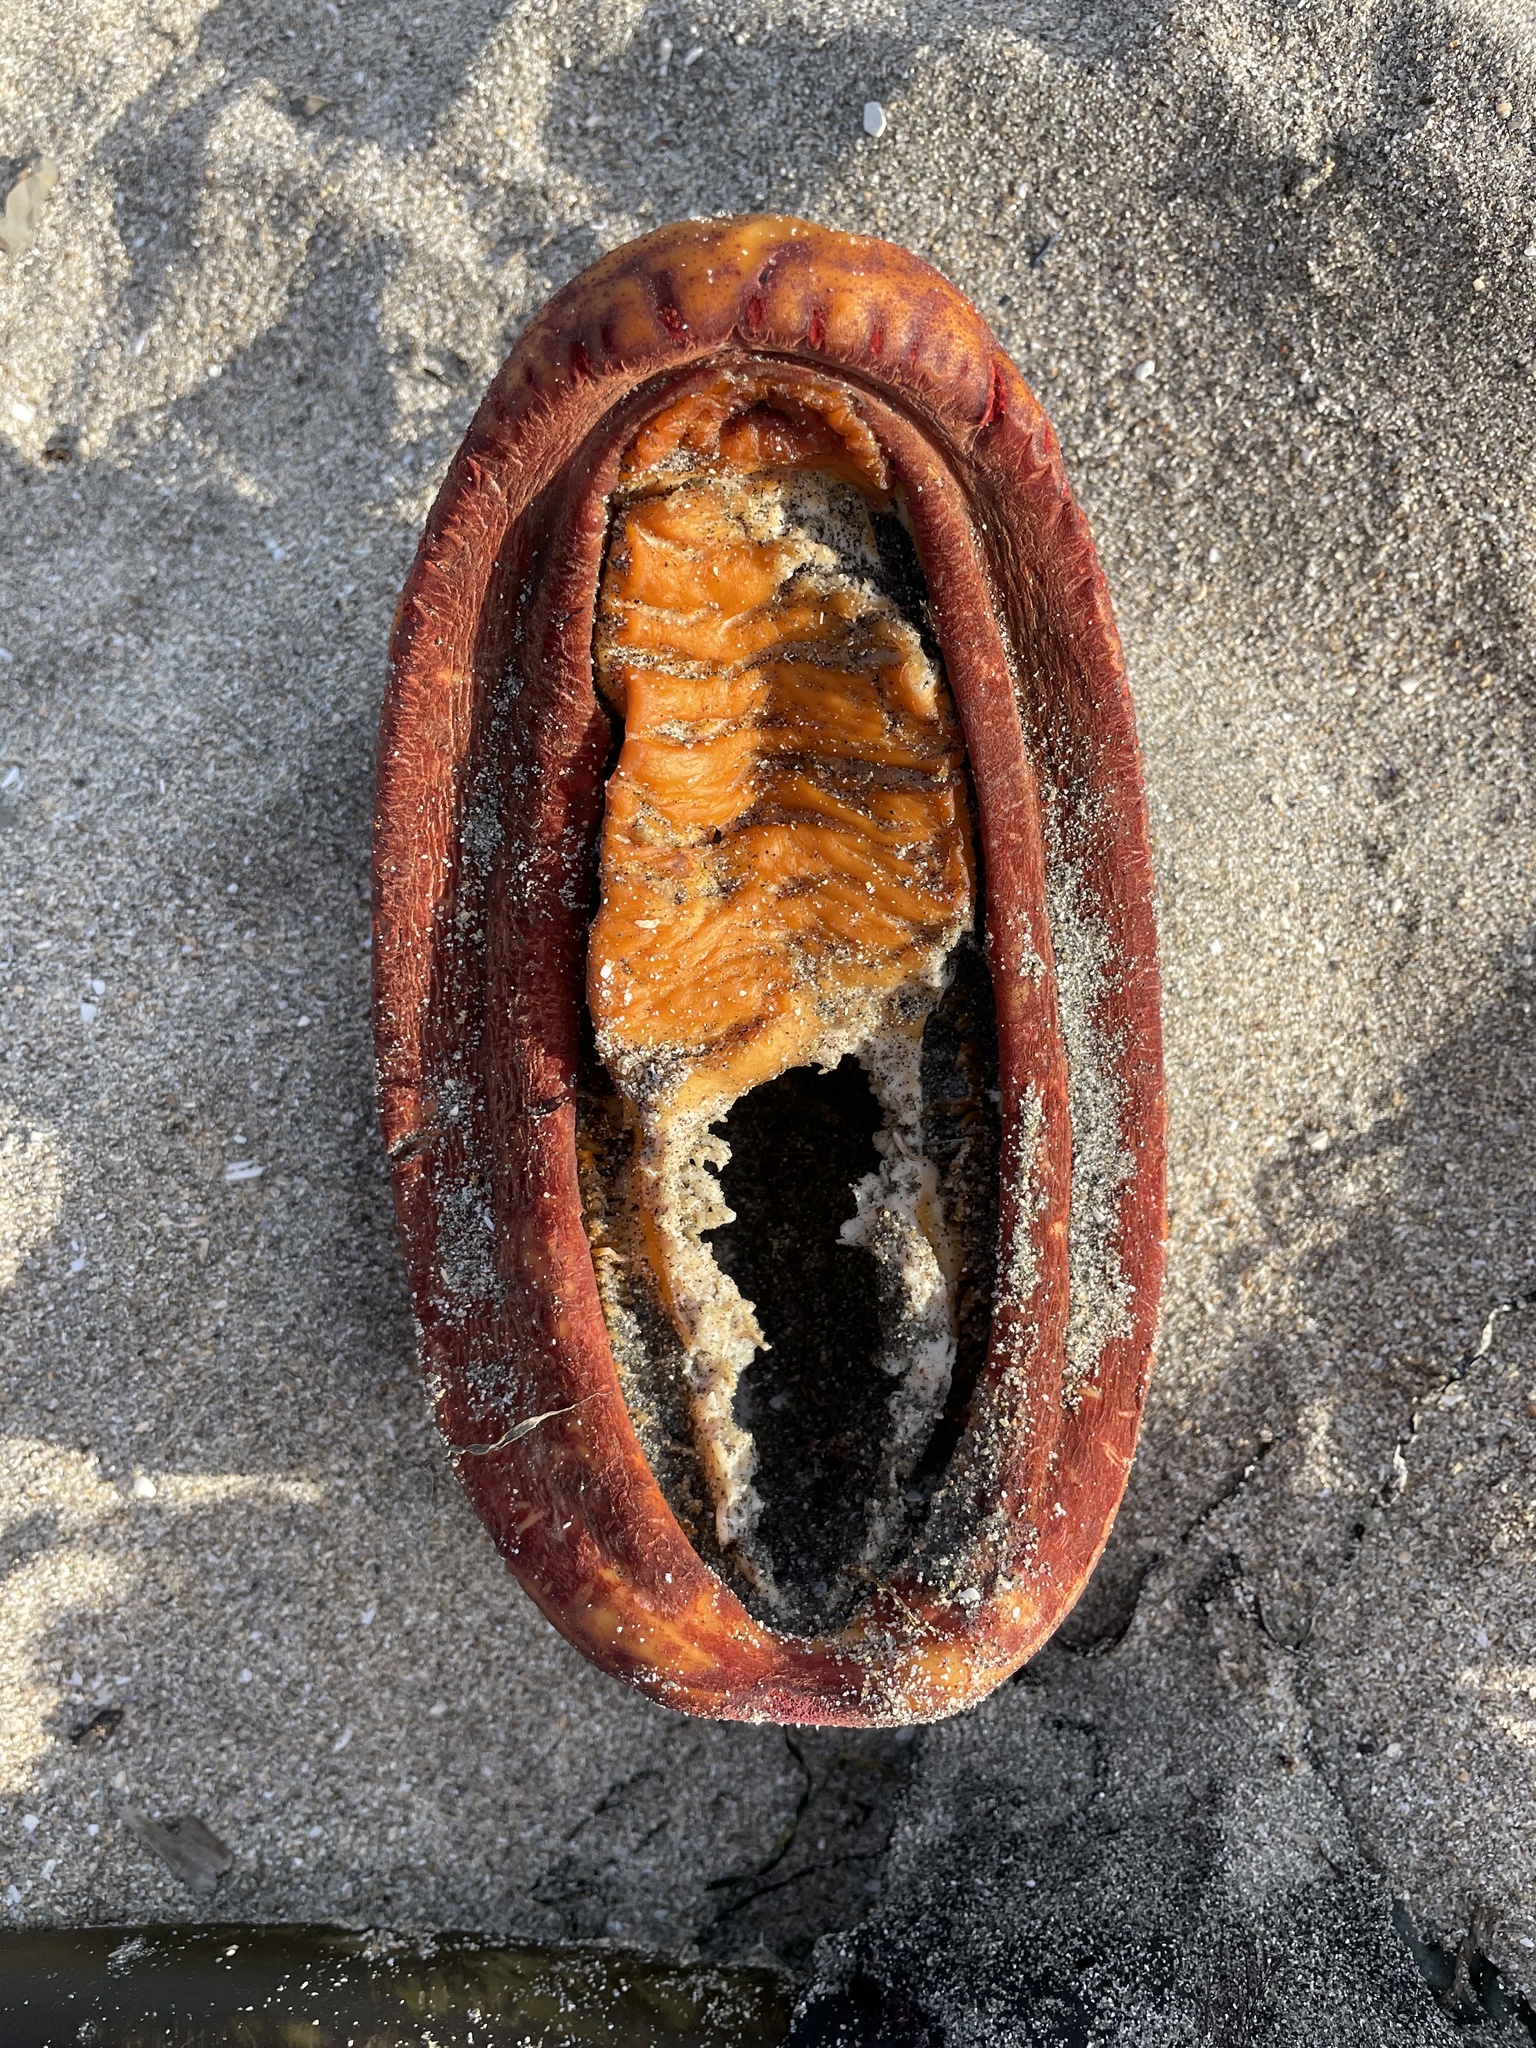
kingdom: Animalia
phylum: Mollusca
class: Polyplacophora
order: Chitonida
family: Acanthochitonidae
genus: Cryptochiton
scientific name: Cryptochiton stelleri
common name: Giant pacific chiton
